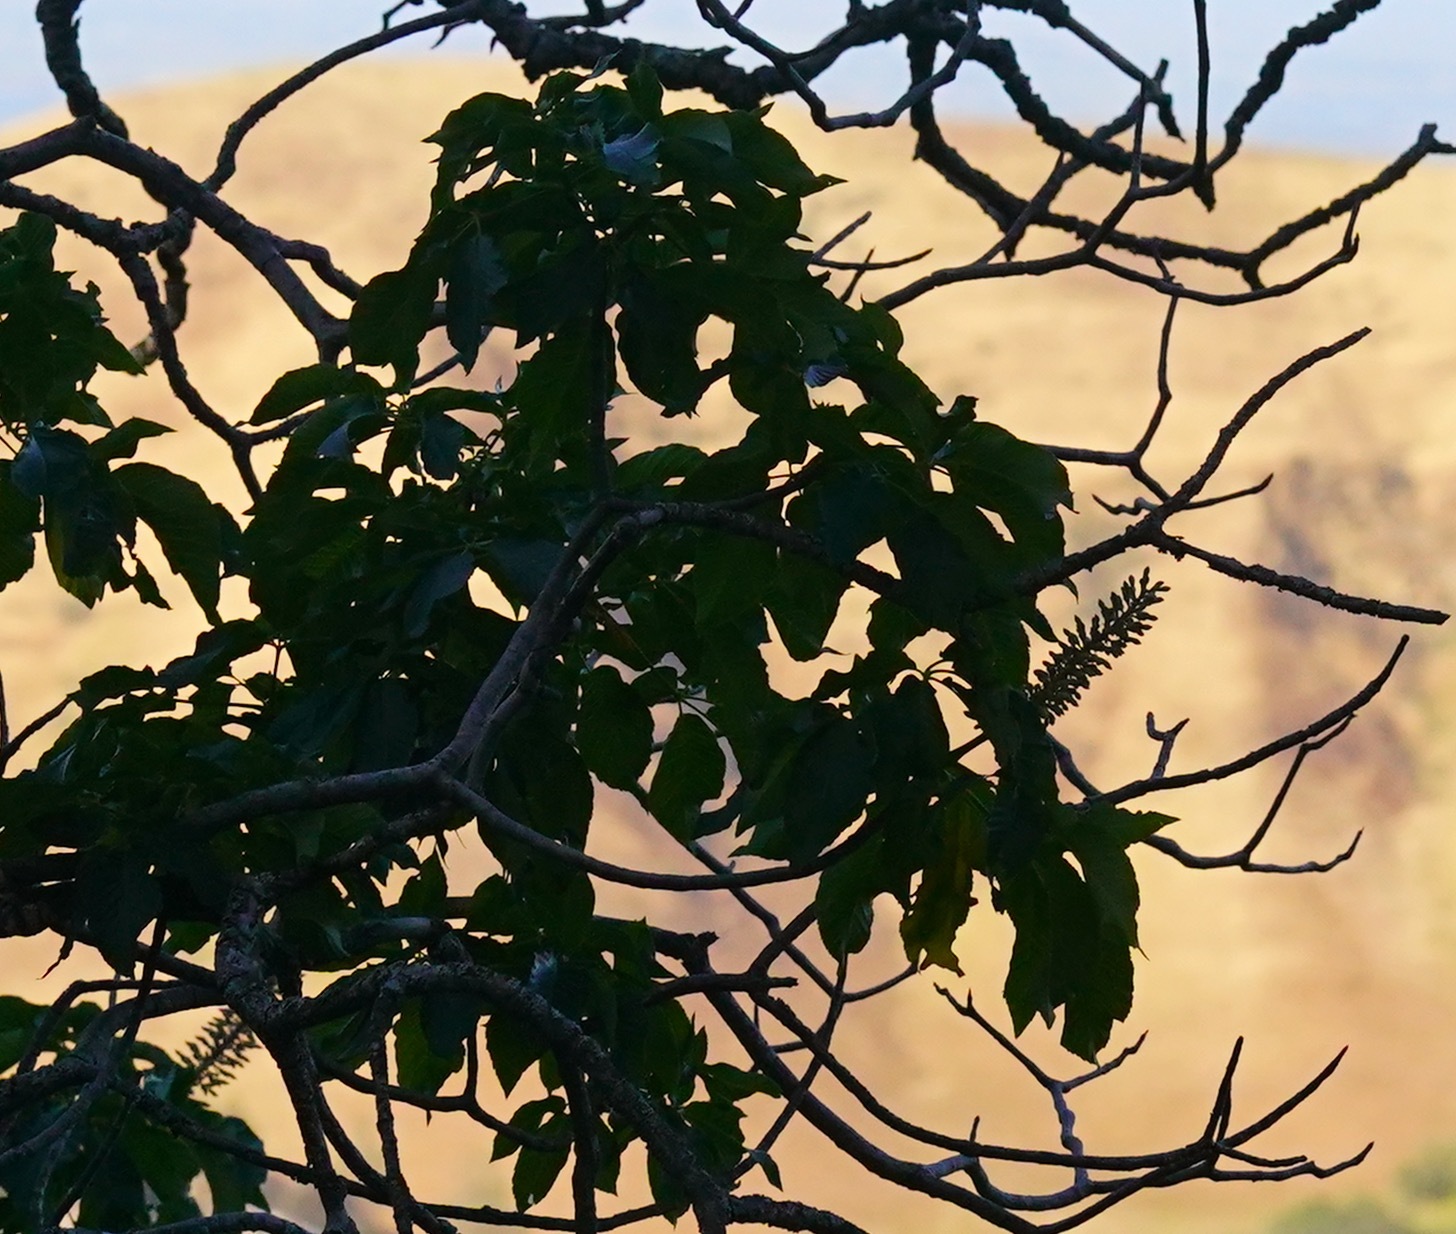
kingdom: Plantae
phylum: Tracheophyta
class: Magnoliopsida
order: Sapindales
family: Sapindaceae
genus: Aesculus
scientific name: Aesculus californica
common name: California buckeye
